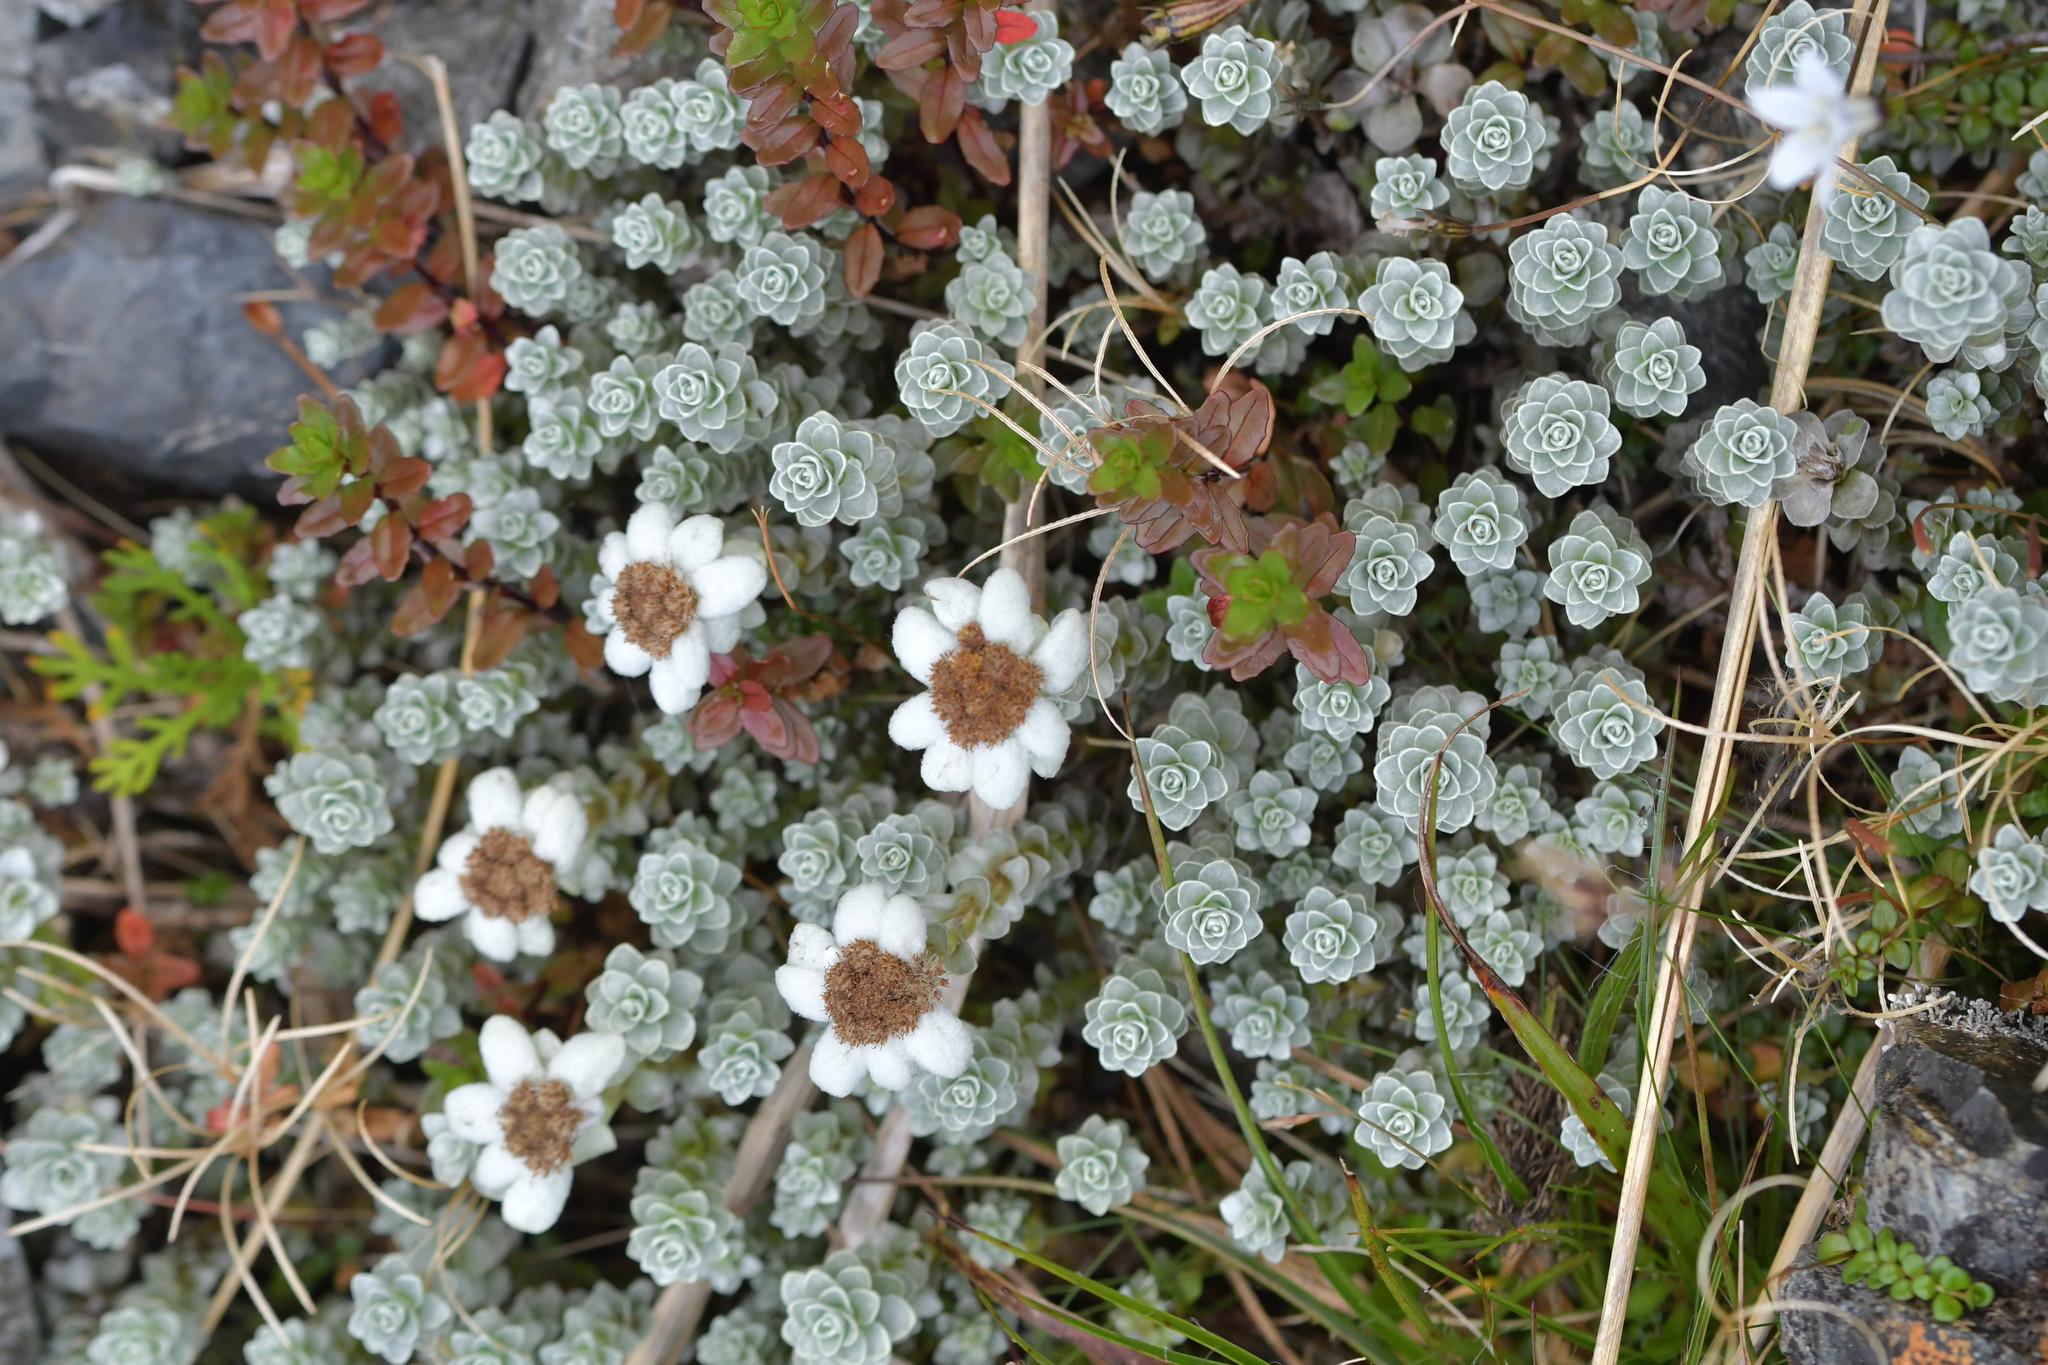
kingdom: Plantae
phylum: Tracheophyta
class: Magnoliopsida
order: Asterales
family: Asteraceae
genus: Leucogenes
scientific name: Leucogenes grandiceps
